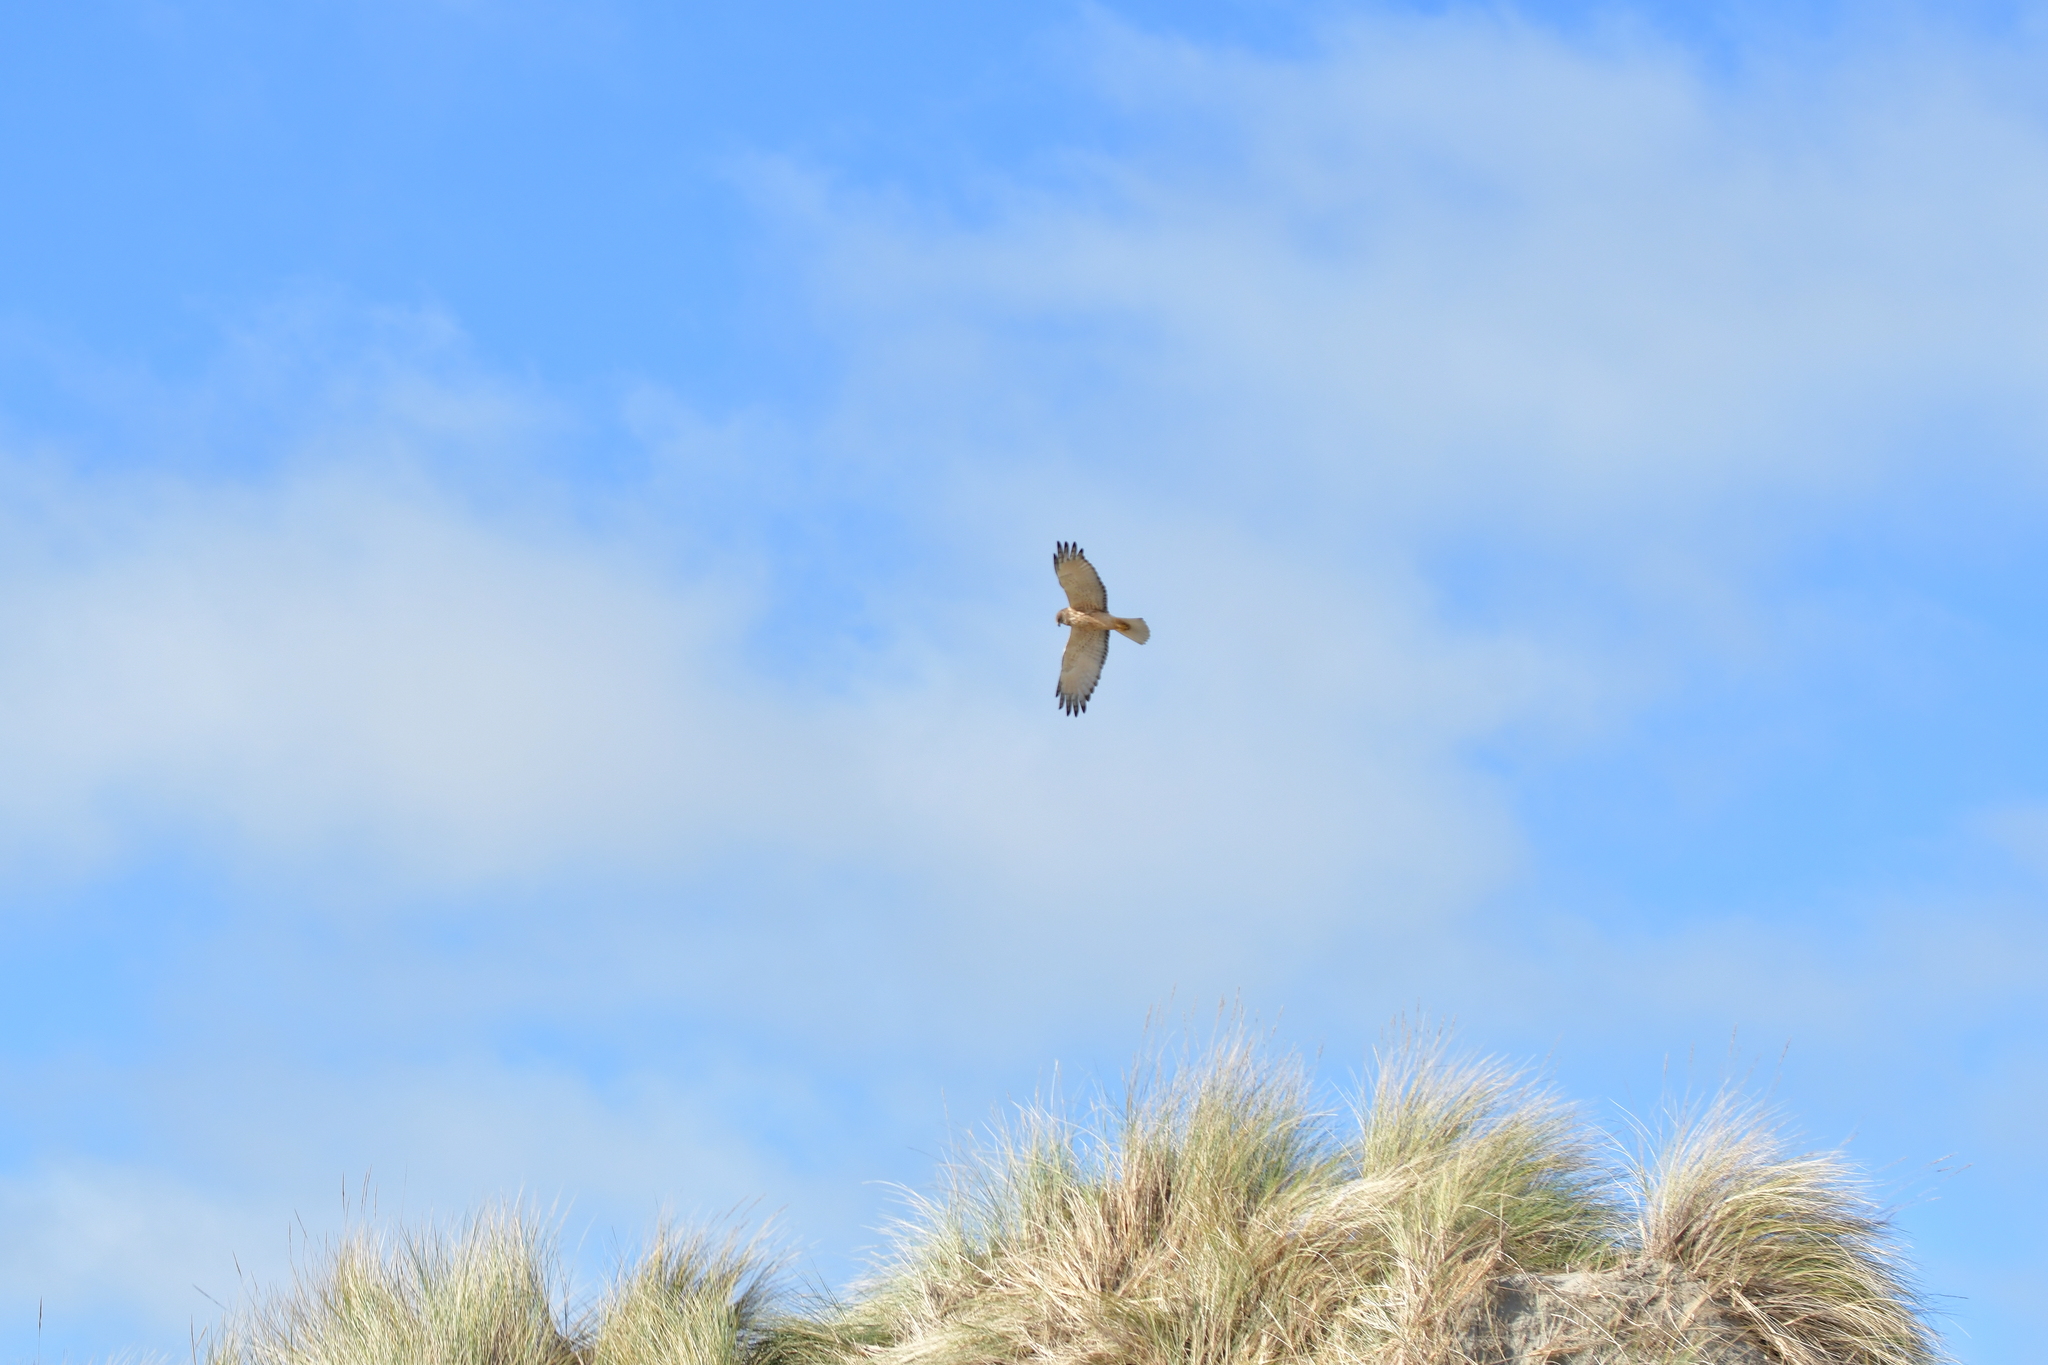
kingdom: Animalia
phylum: Chordata
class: Aves
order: Accipitriformes
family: Accipitridae
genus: Circus
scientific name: Circus approximans
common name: Swamp harrier
